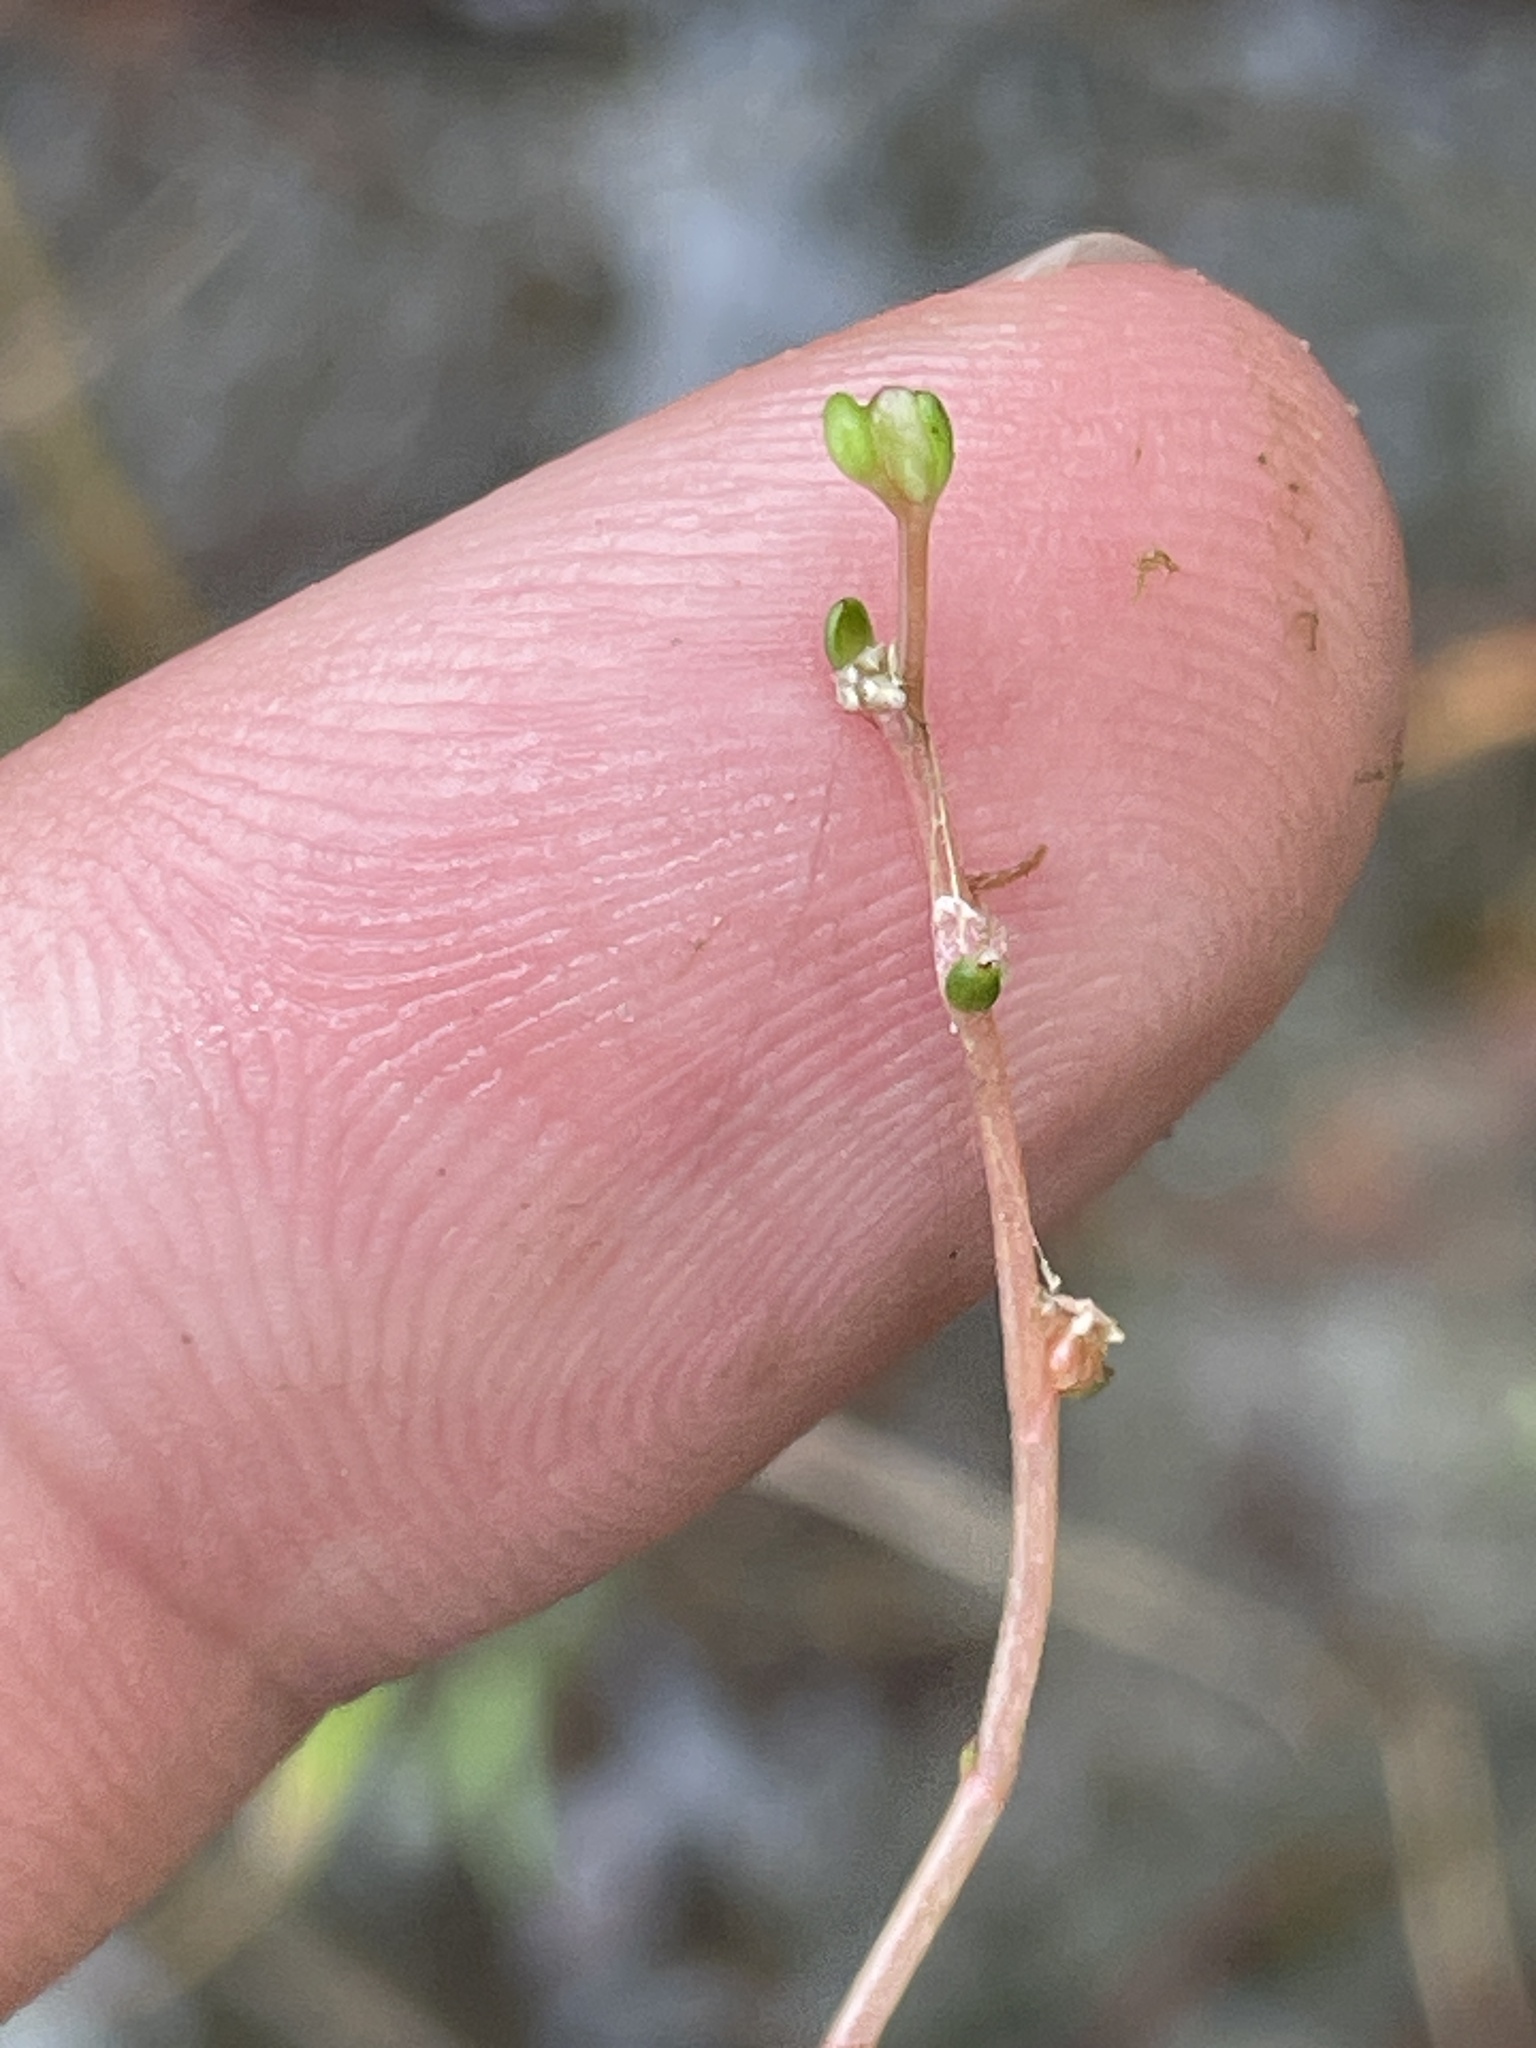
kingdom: Plantae
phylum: Tracheophyta
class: Magnoliopsida
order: Saxifragales
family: Haloragaceae
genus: Myriophyllum
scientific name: Myriophyllum tenellum
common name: Slender water-milfoil
